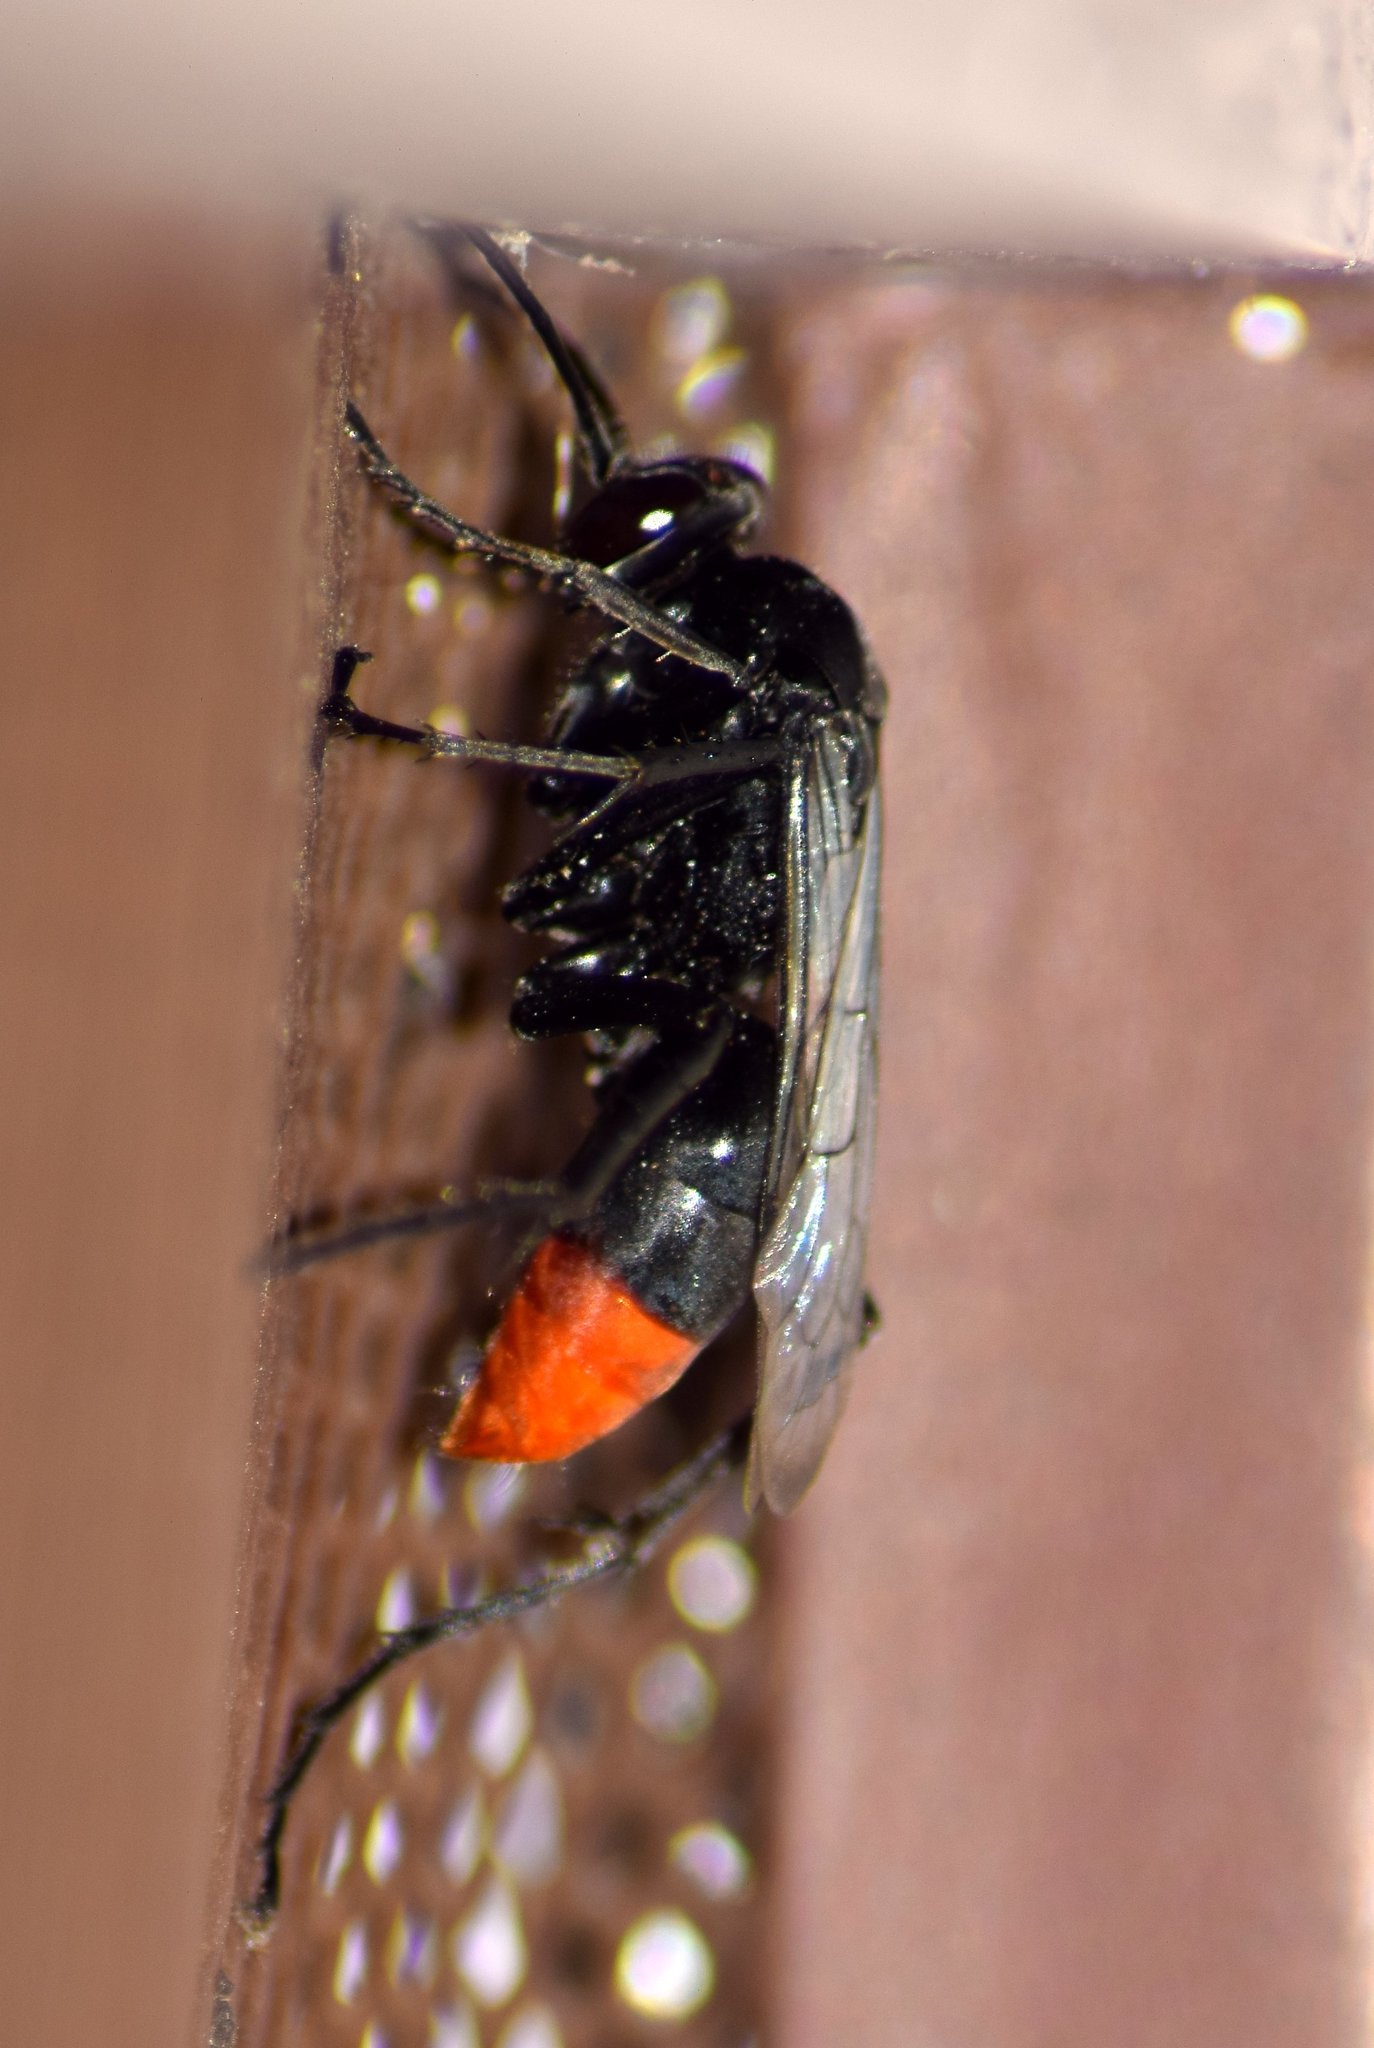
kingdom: Animalia
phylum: Arthropoda
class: Insecta
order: Hymenoptera
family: Pompilidae
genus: Tachypompilus
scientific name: Tachypompilus analis
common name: Spider wasp
